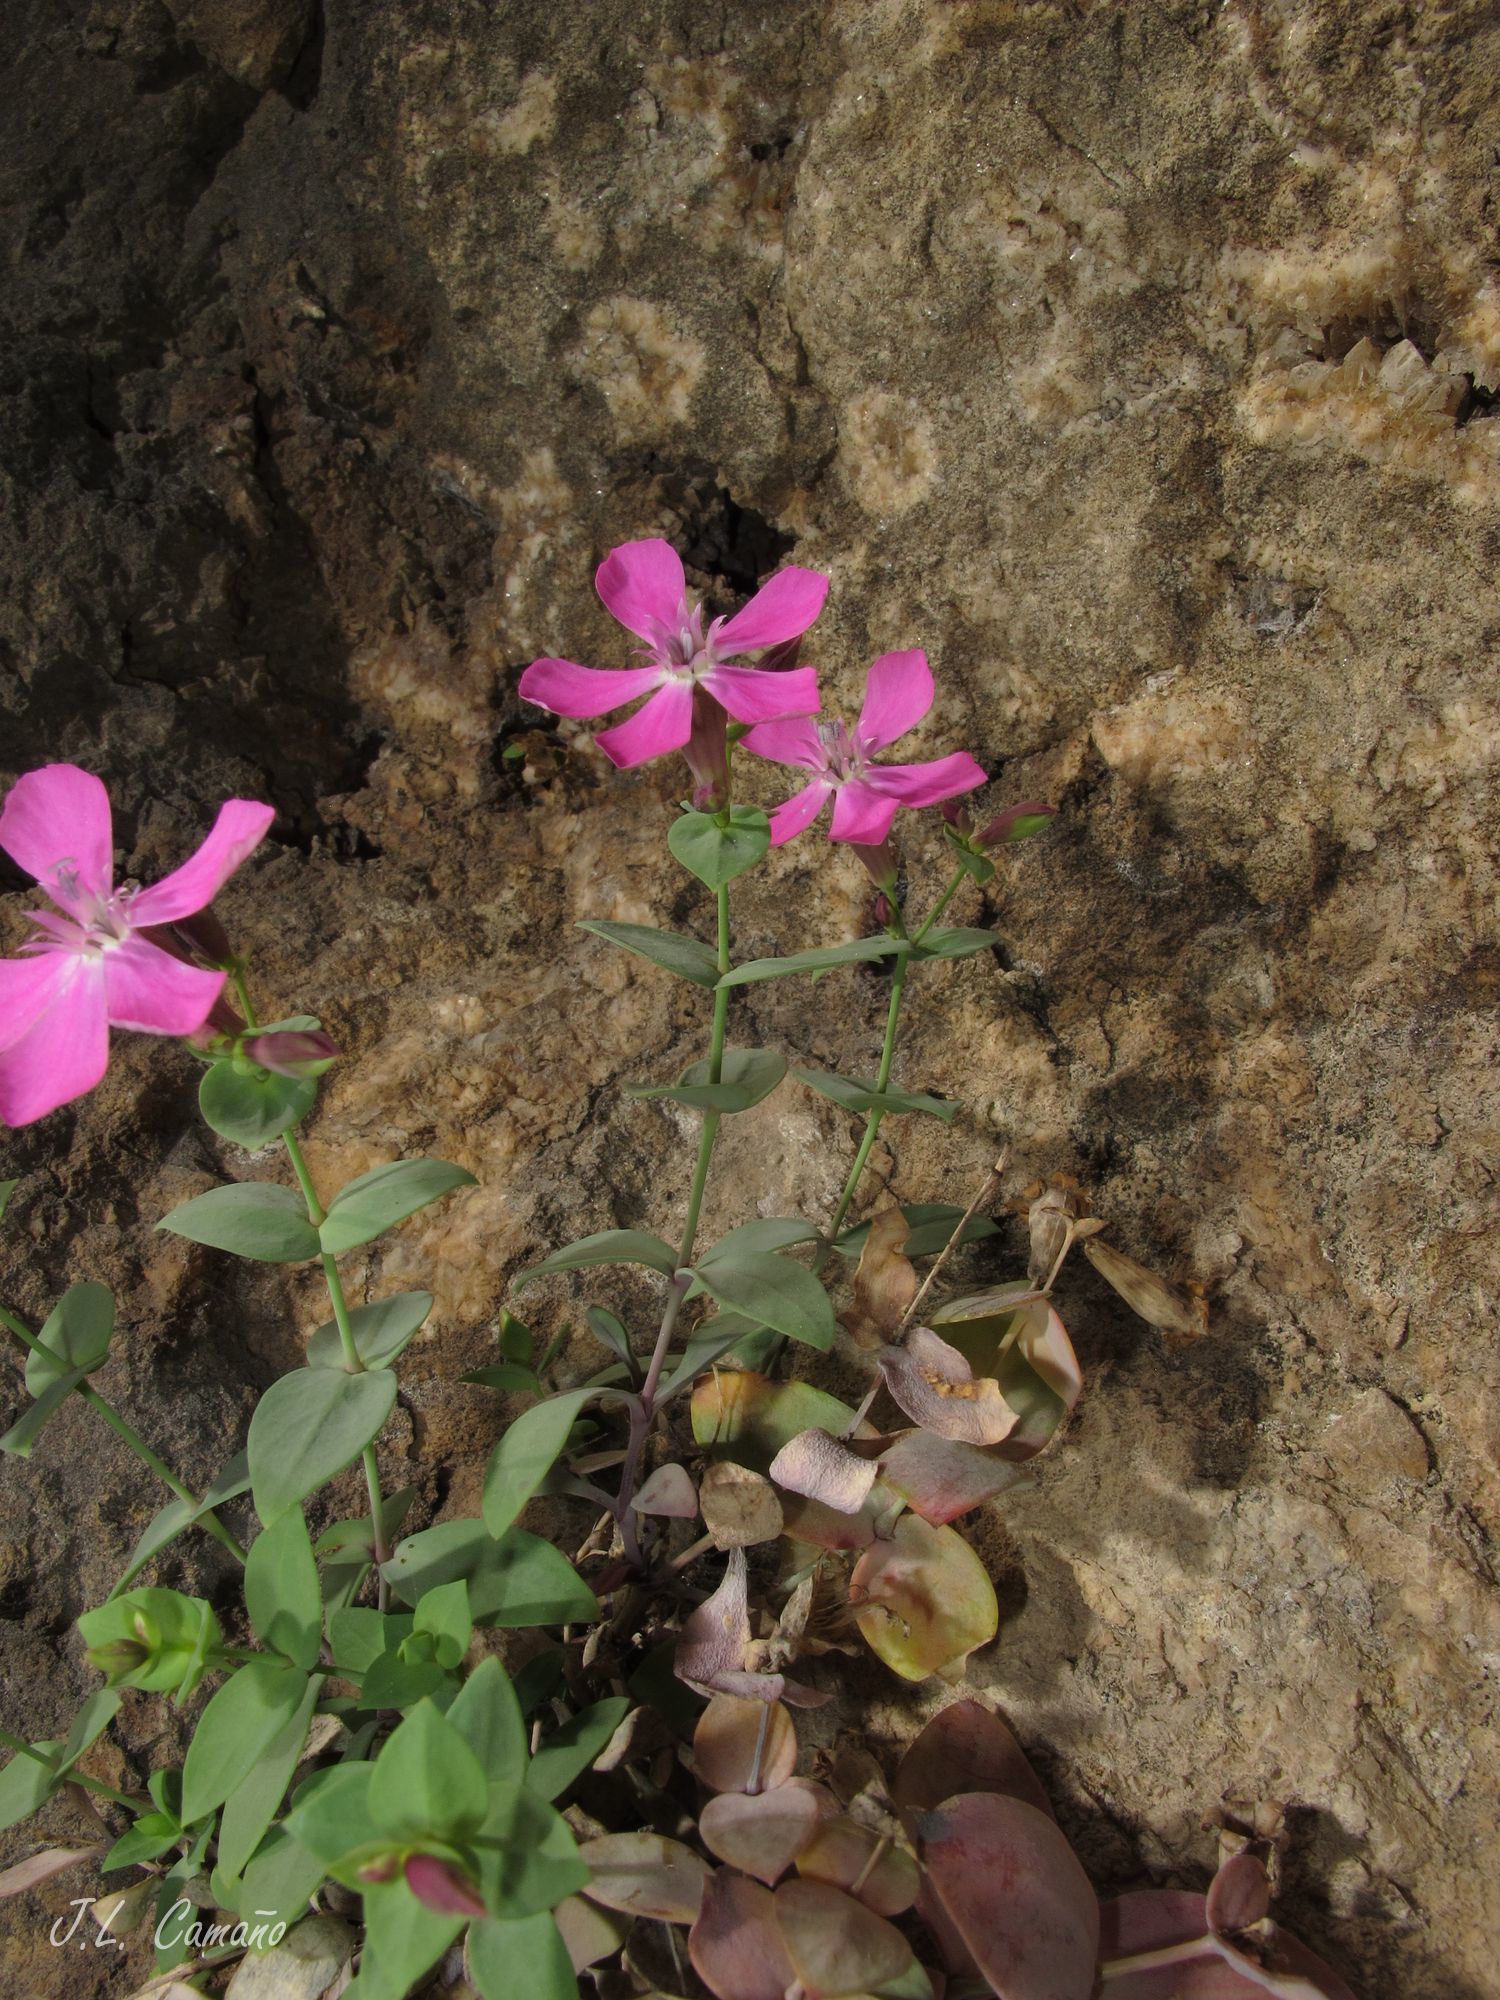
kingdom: Plantae
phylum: Tracheophyta
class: Magnoliopsida
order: Caryophyllales
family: Caryophyllaceae
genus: Petrocoptis
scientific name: Petrocoptis grandiflora
